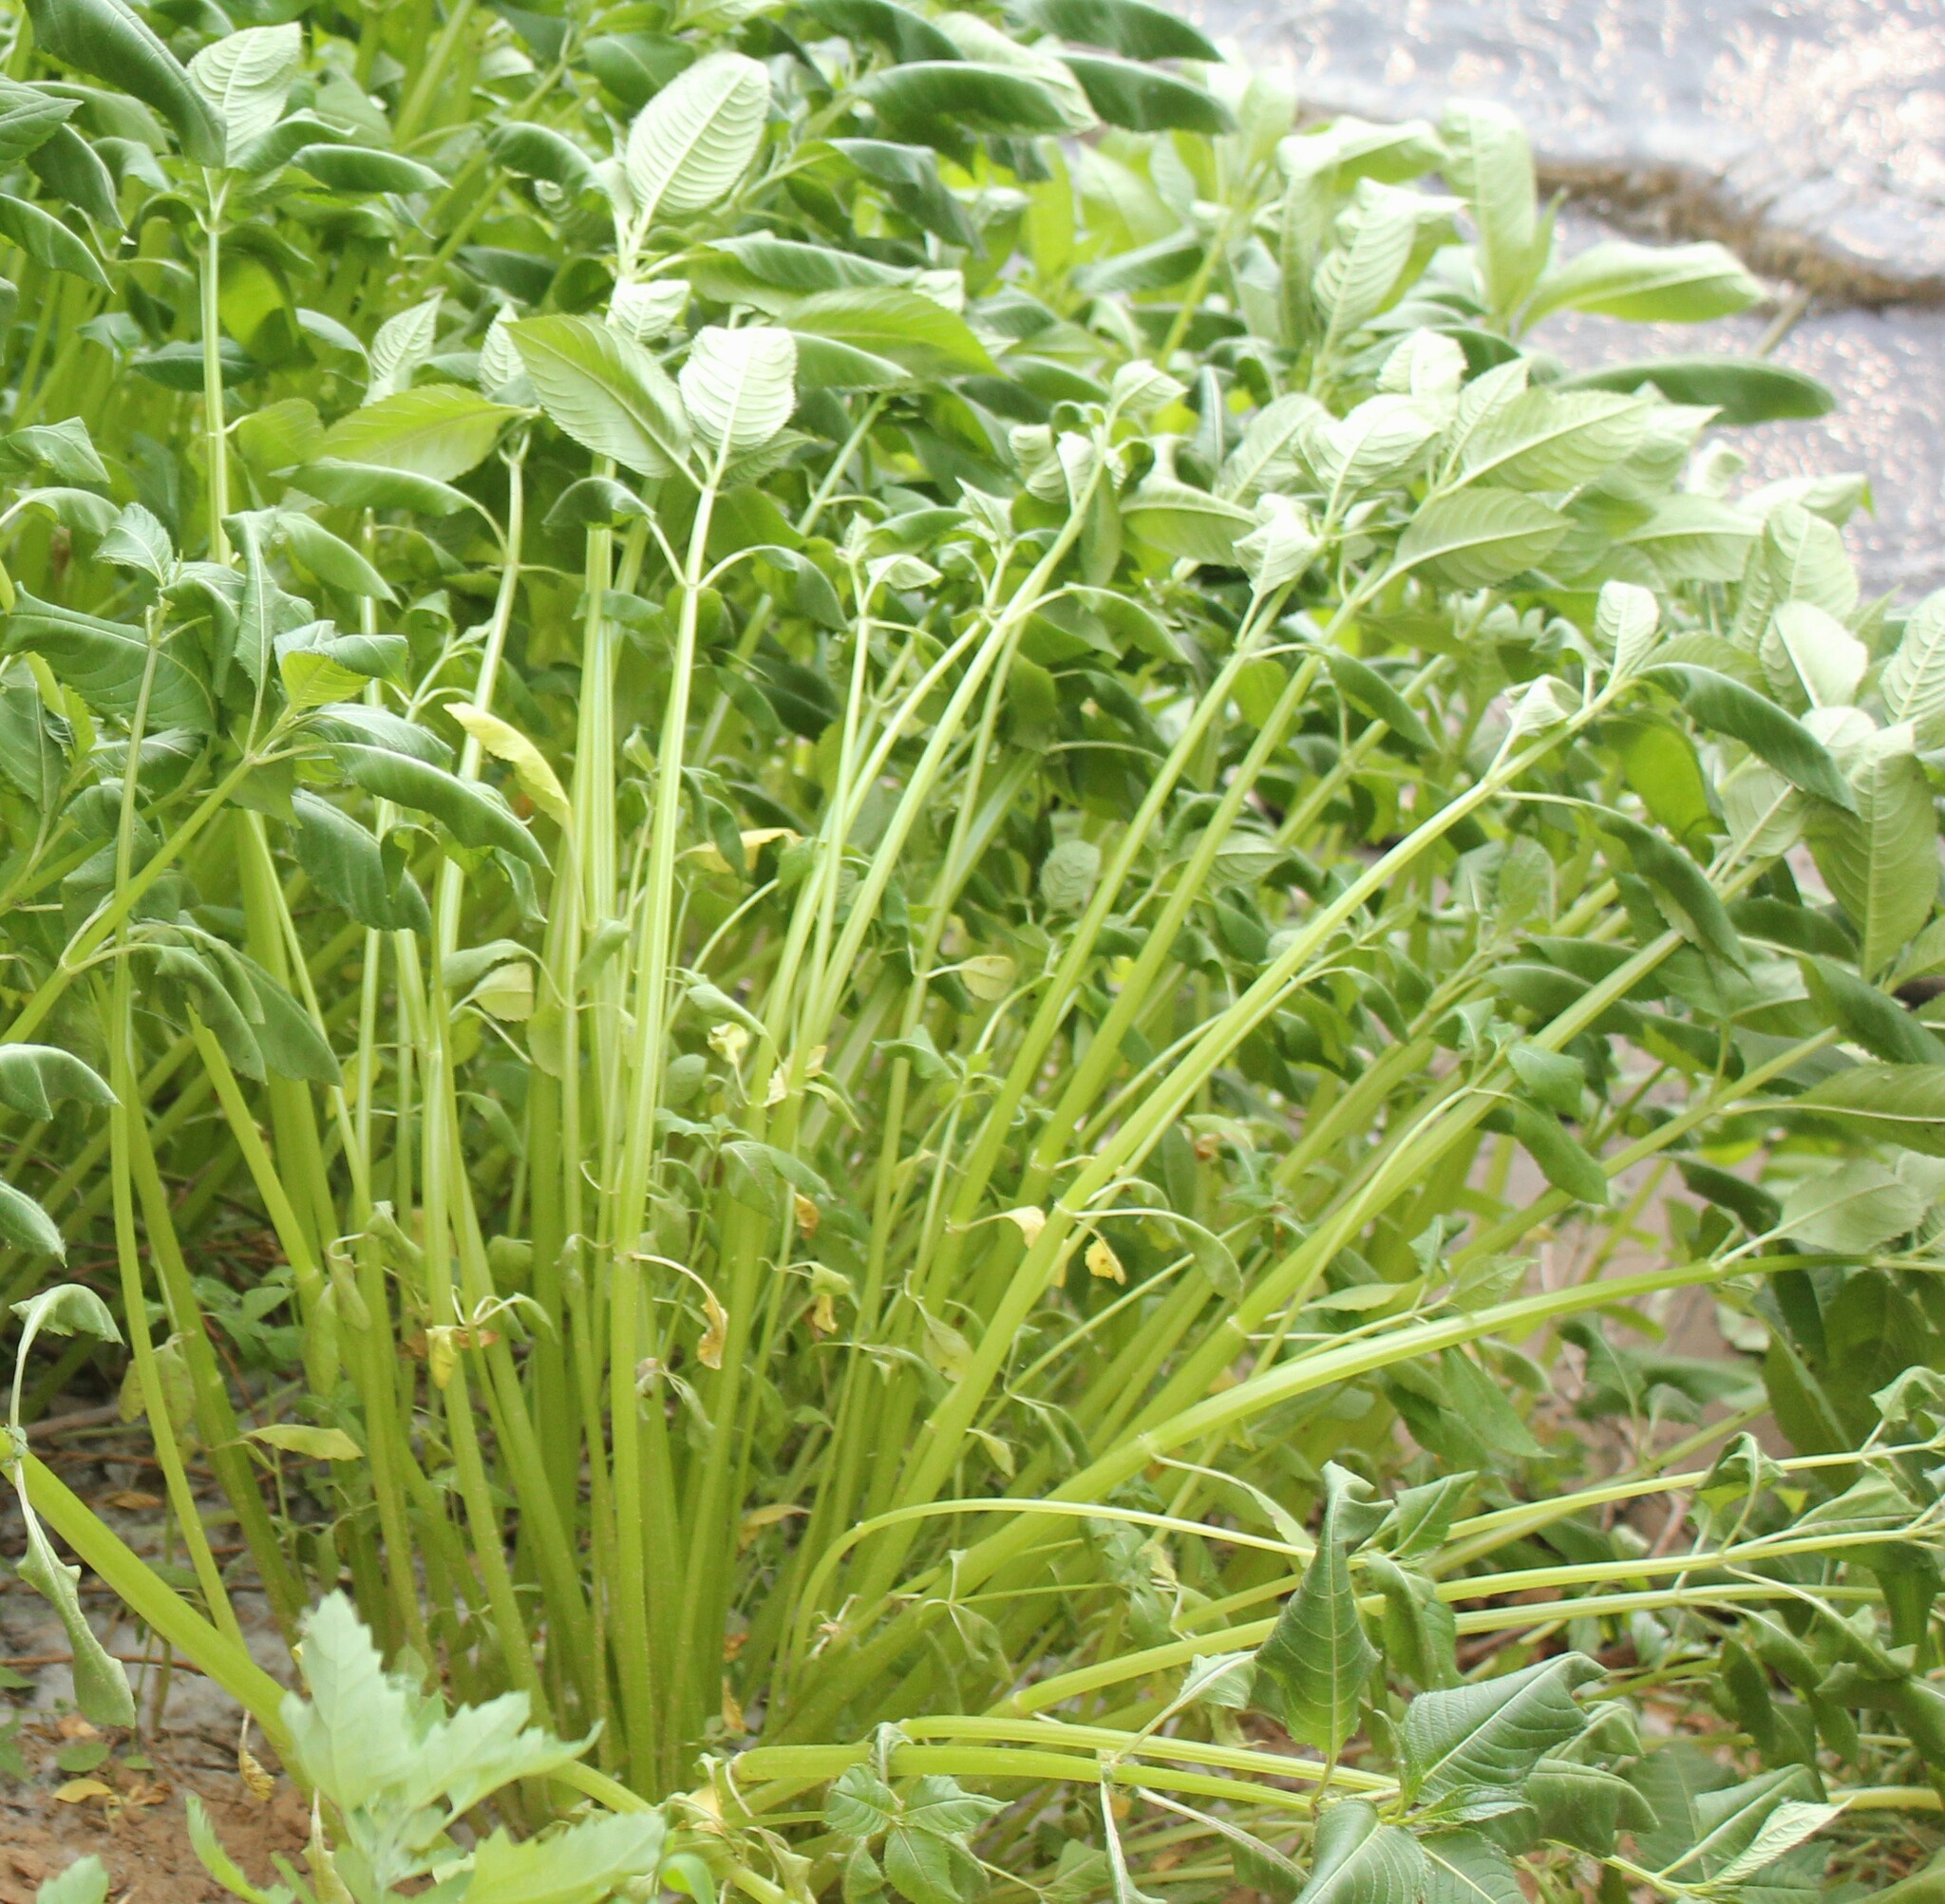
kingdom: Plantae
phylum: Tracheophyta
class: Magnoliopsida
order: Ericales
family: Balsaminaceae
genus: Impatiens
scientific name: Impatiens glandulifera
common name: Himalayan balsam
